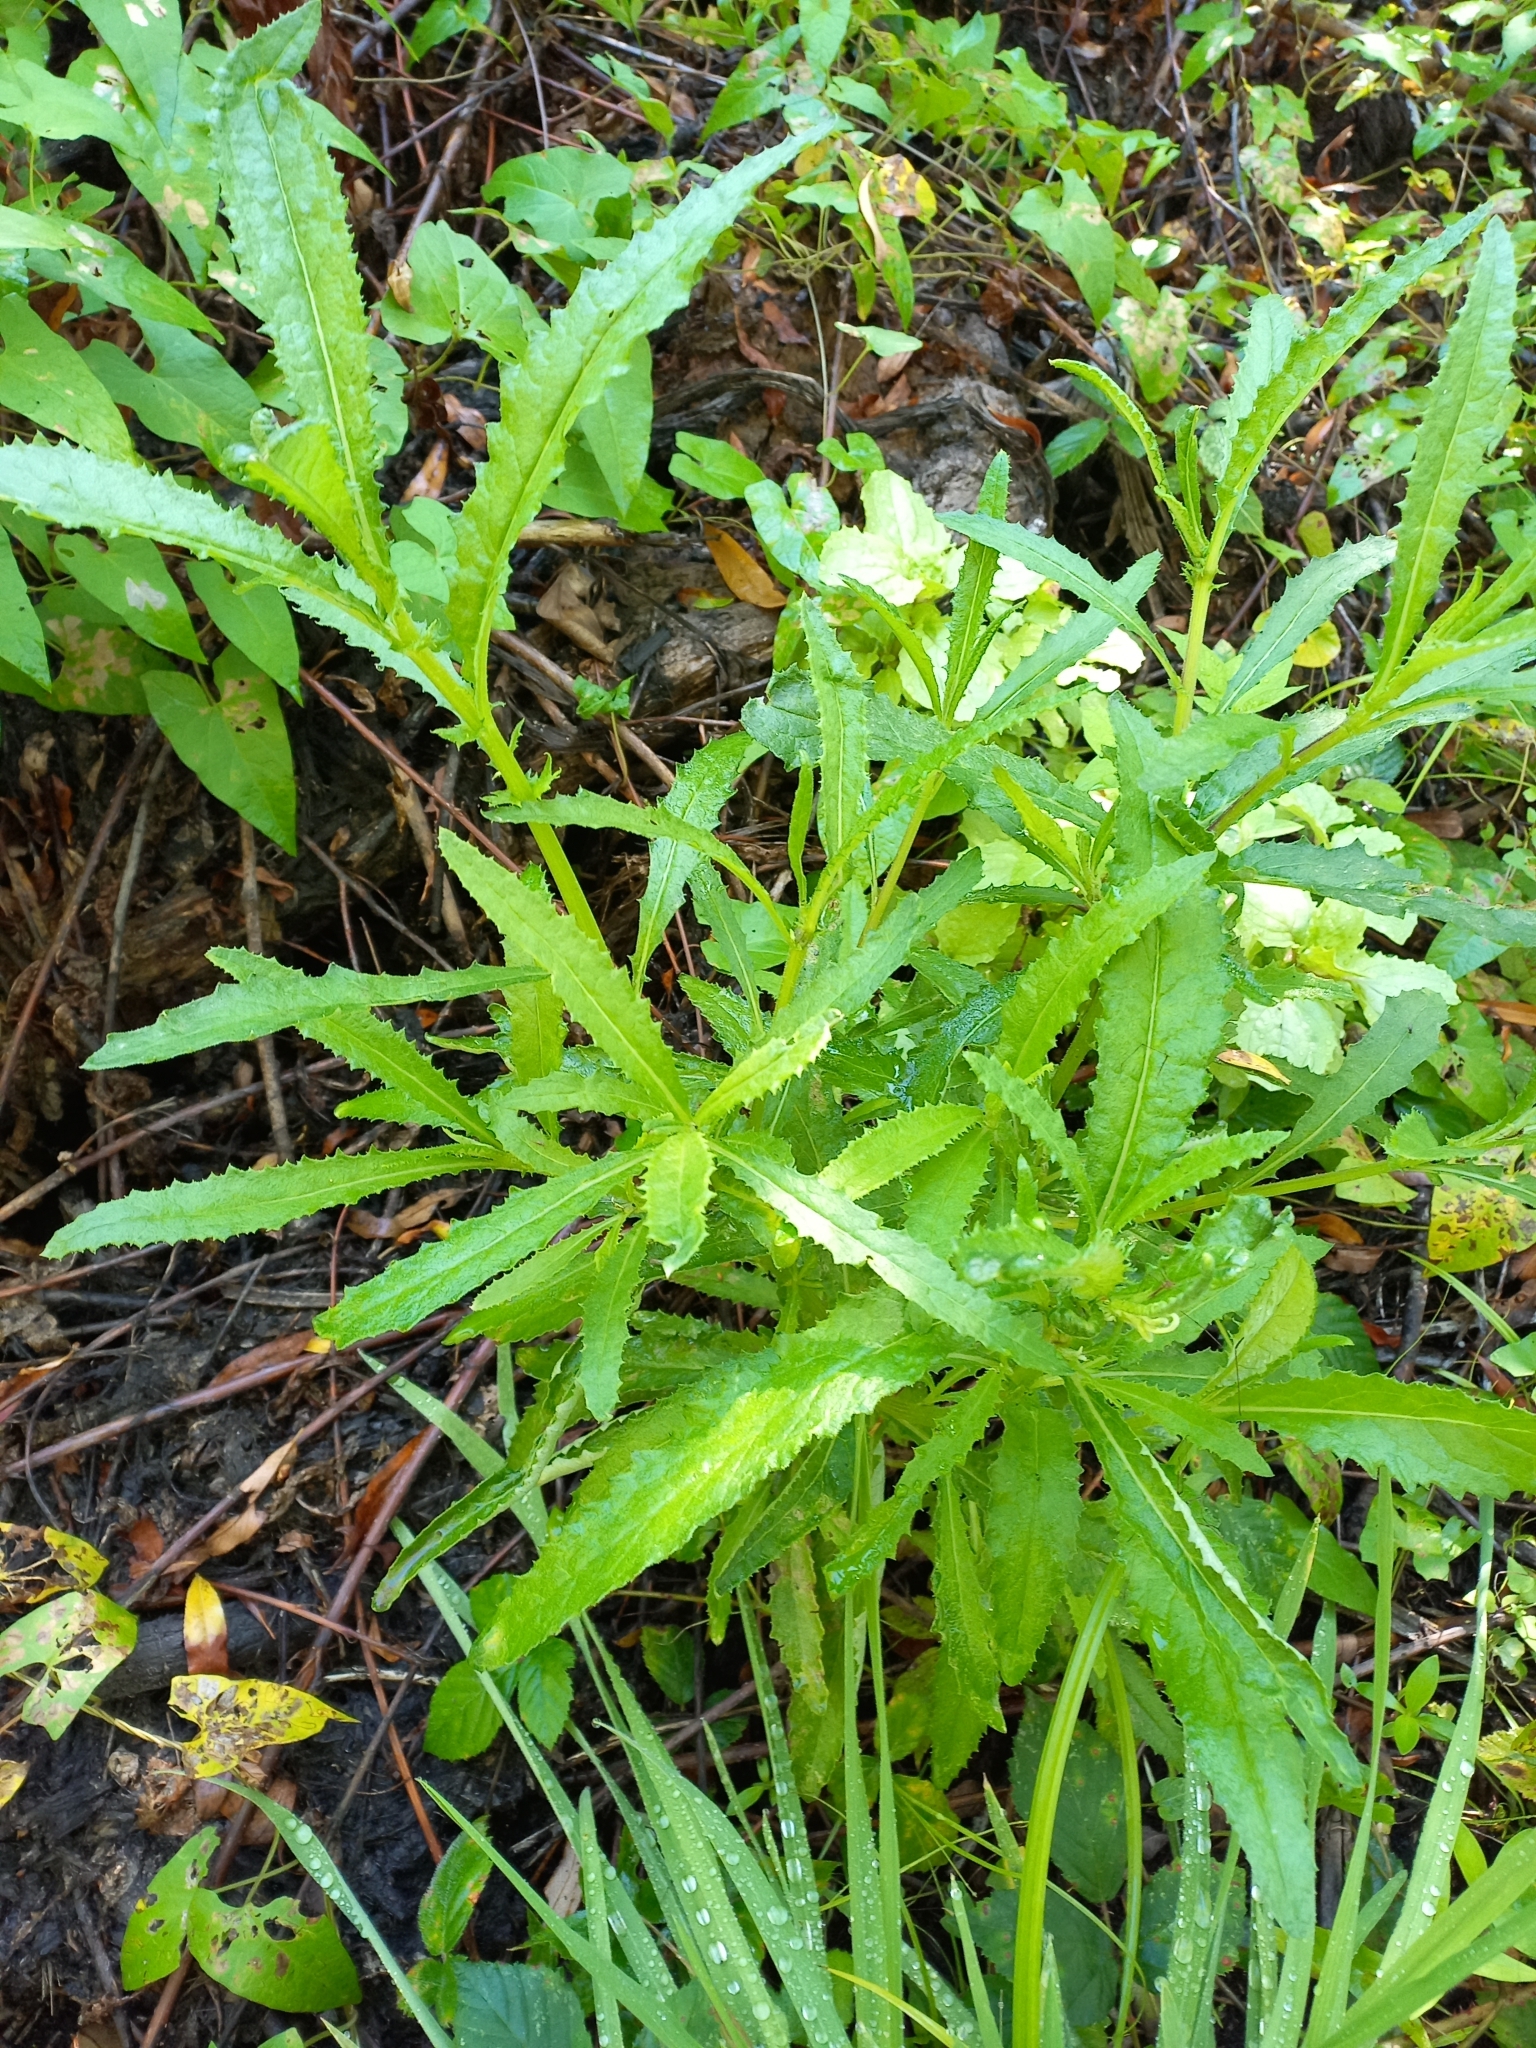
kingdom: Plantae
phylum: Tracheophyta
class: Magnoliopsida
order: Asterales
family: Asteraceae
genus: Senecio
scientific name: Senecio minimus
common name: Toothed fireweed
